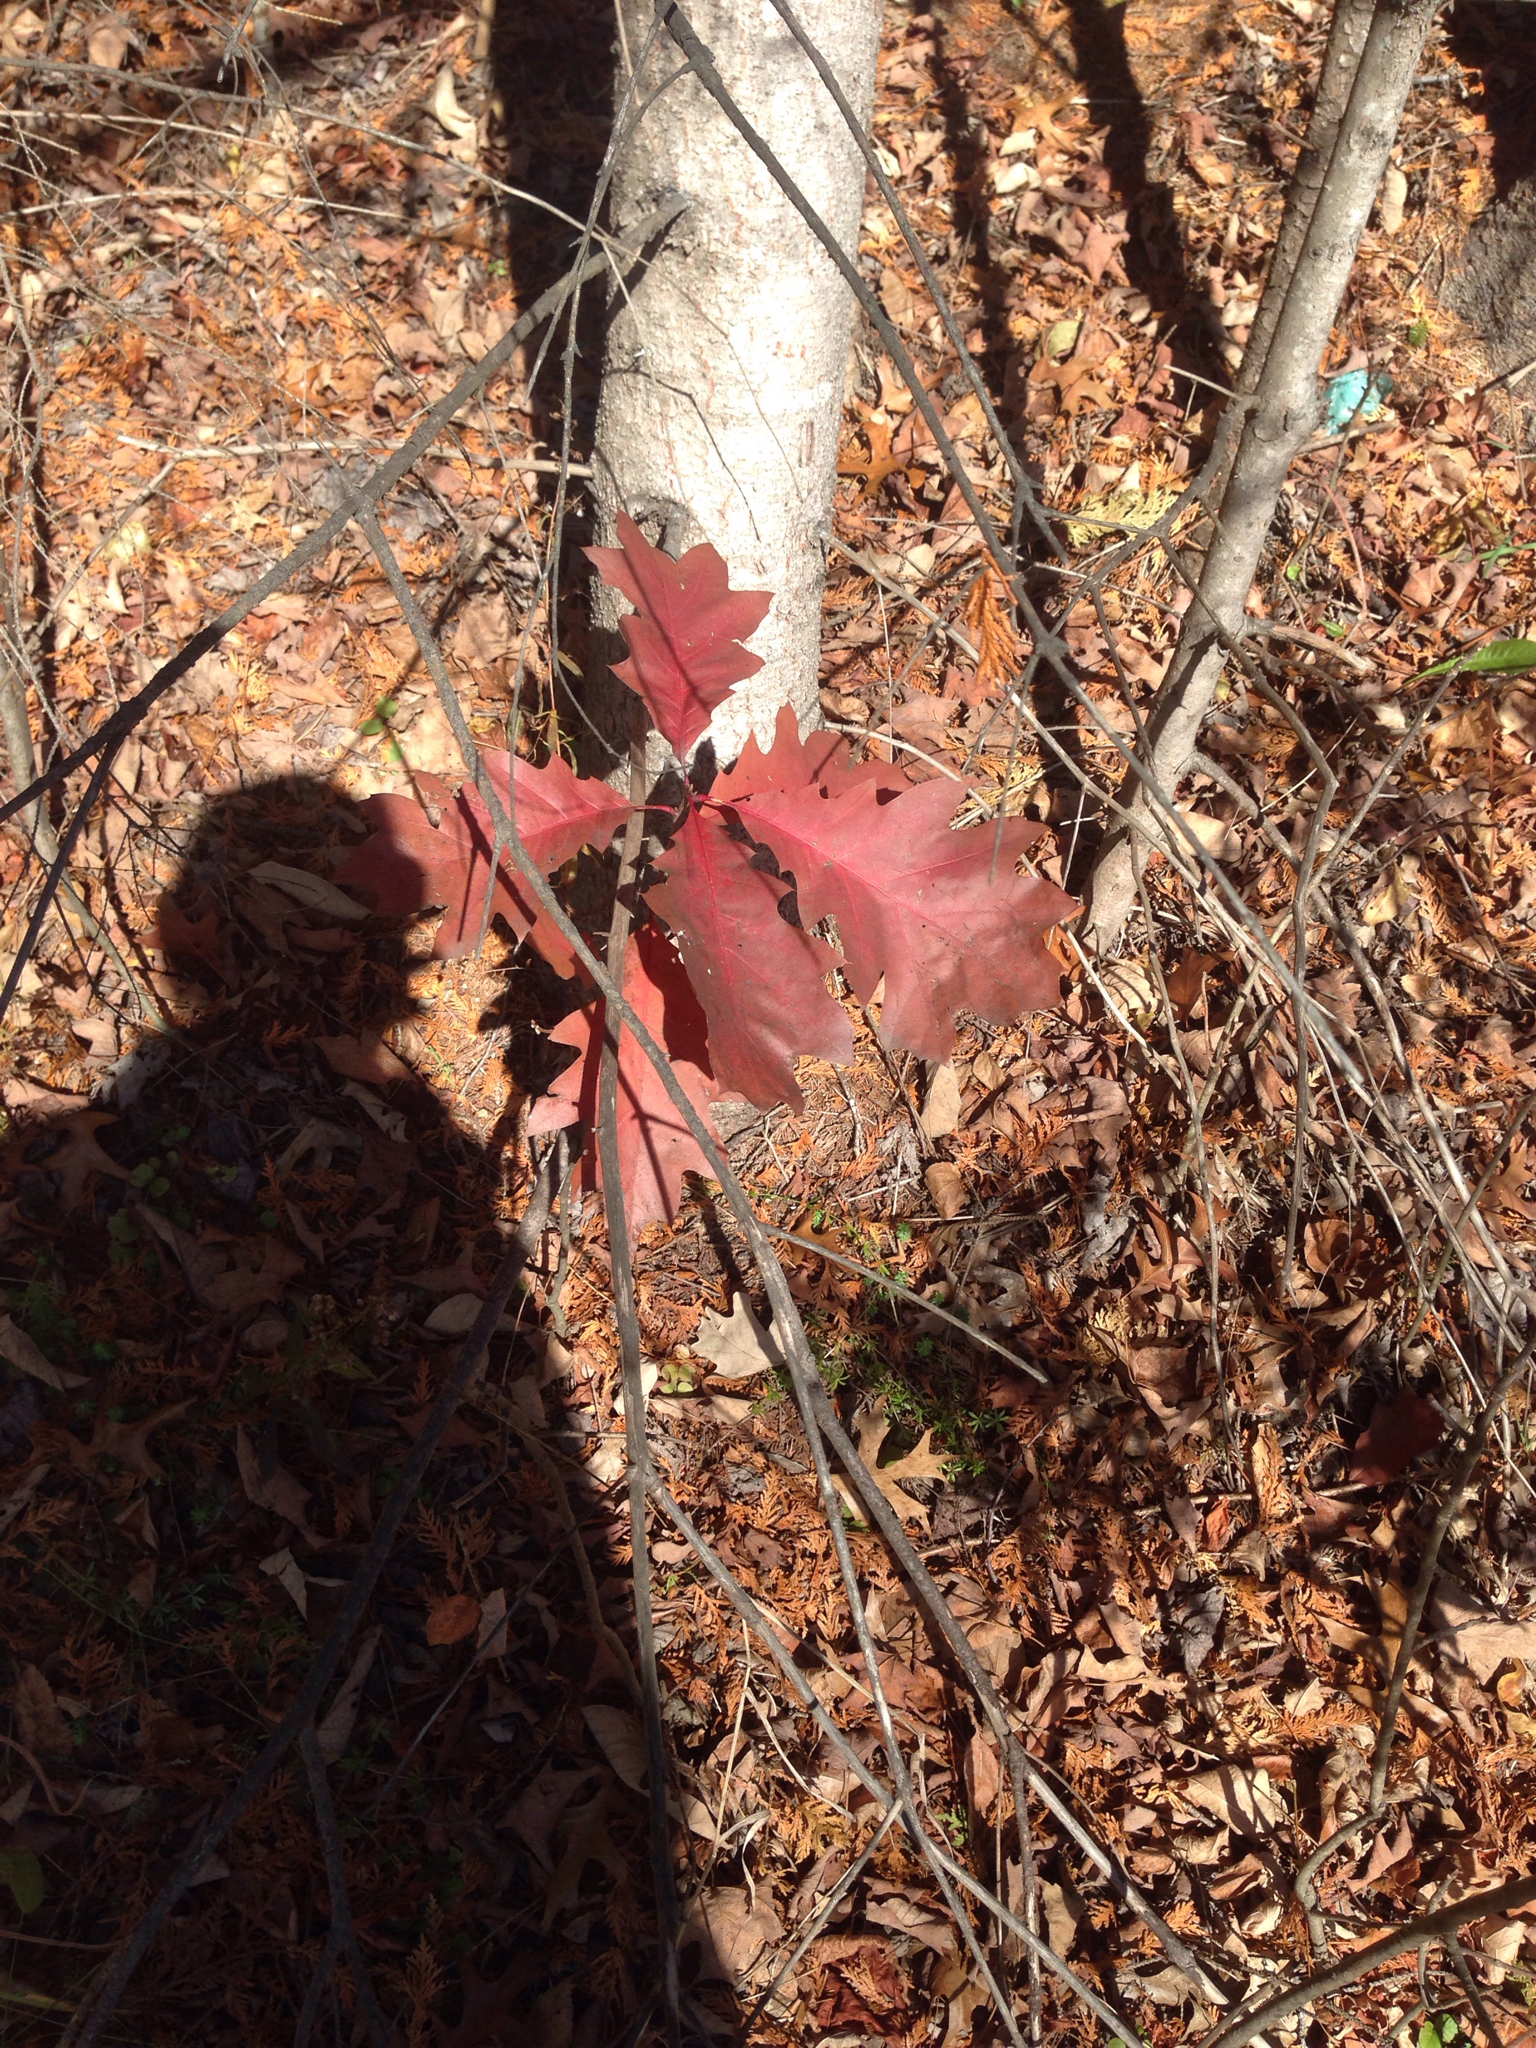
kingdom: Plantae
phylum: Tracheophyta
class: Magnoliopsida
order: Fagales
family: Fagaceae
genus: Quercus
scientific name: Quercus rubra
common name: Red oak
